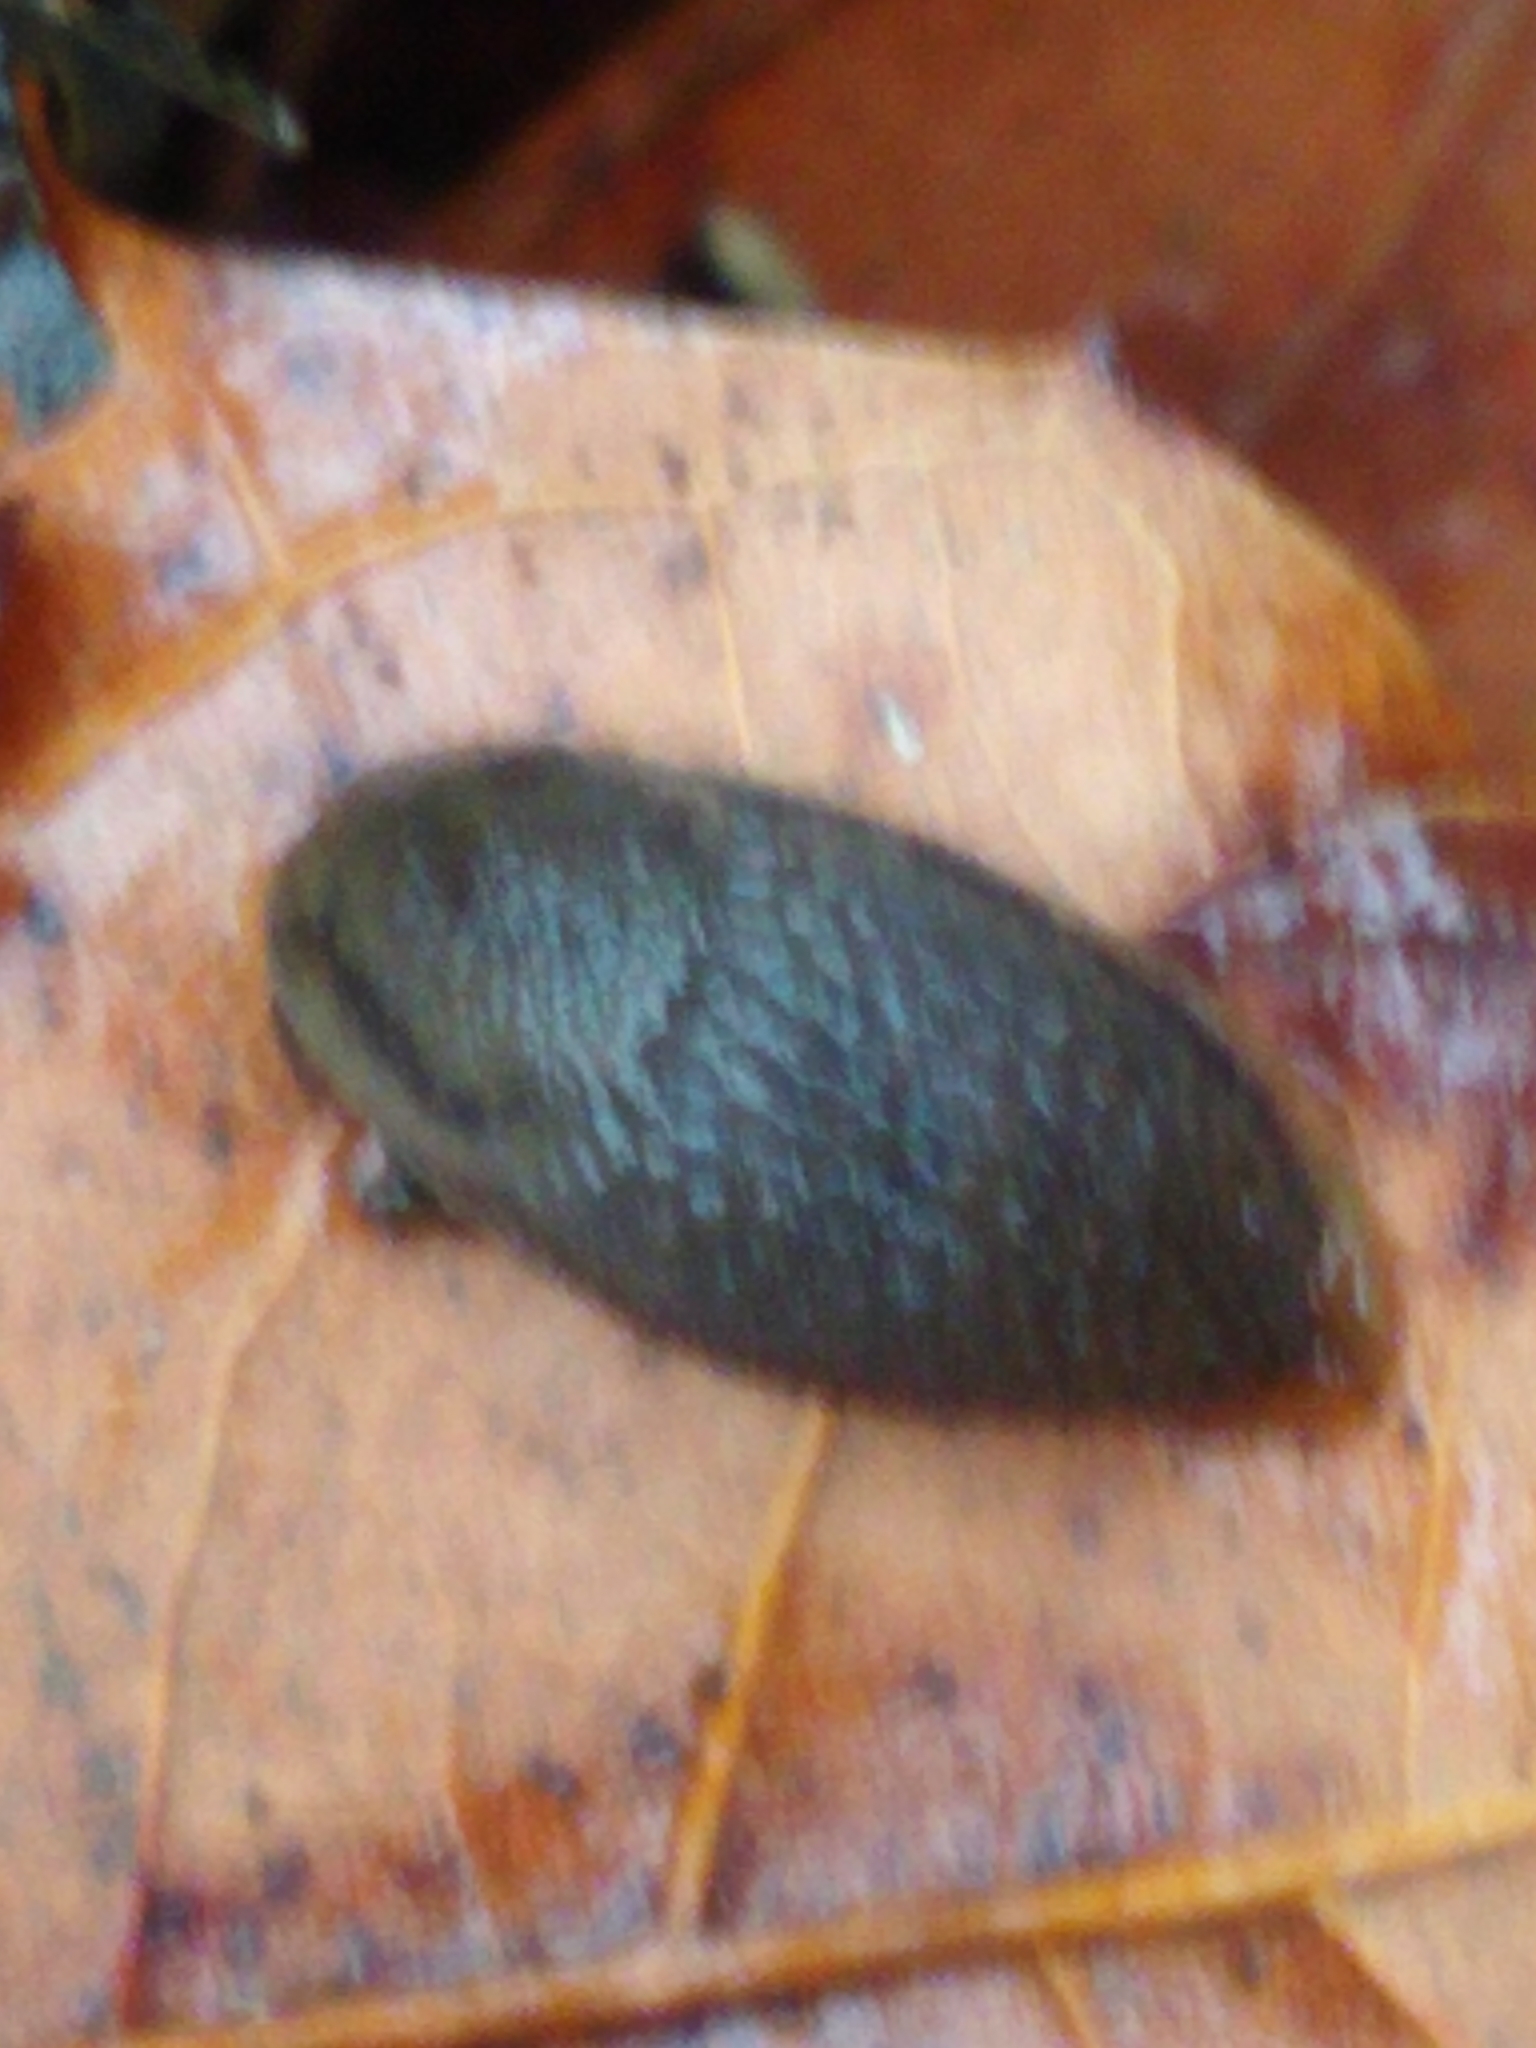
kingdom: Animalia
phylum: Mollusca
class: Gastropoda
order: Stylommatophora
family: Arionidae
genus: Arion
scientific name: Arion intermedius
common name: Hedgehog slug
